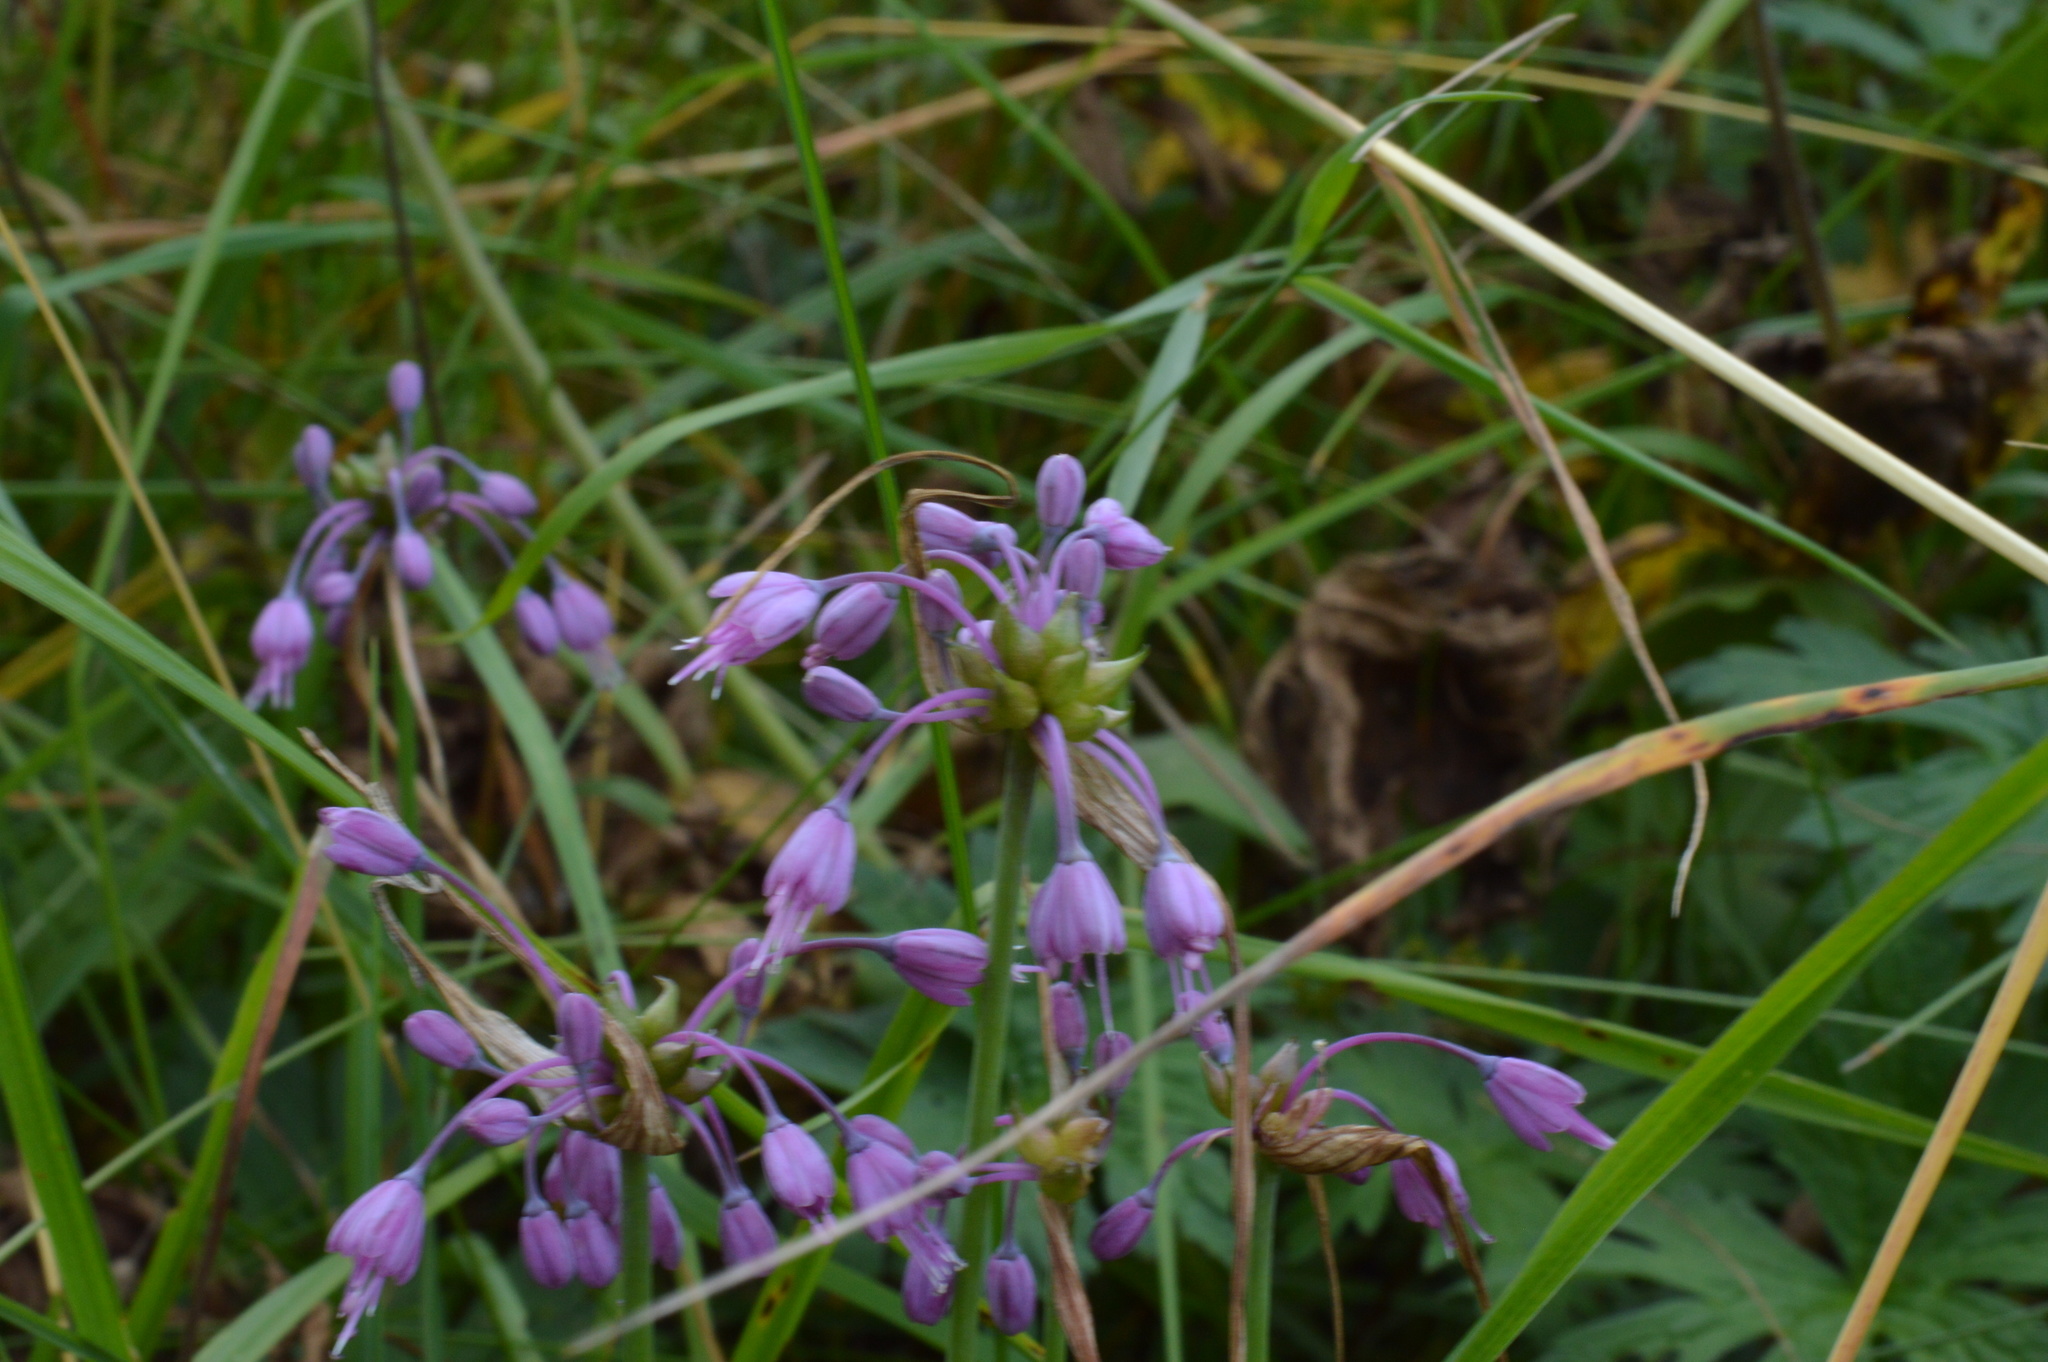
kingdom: Plantae
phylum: Tracheophyta
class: Liliopsida
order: Asparagales
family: Amaryllidaceae
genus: Allium
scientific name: Allium carinatum
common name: Keeled garlic
